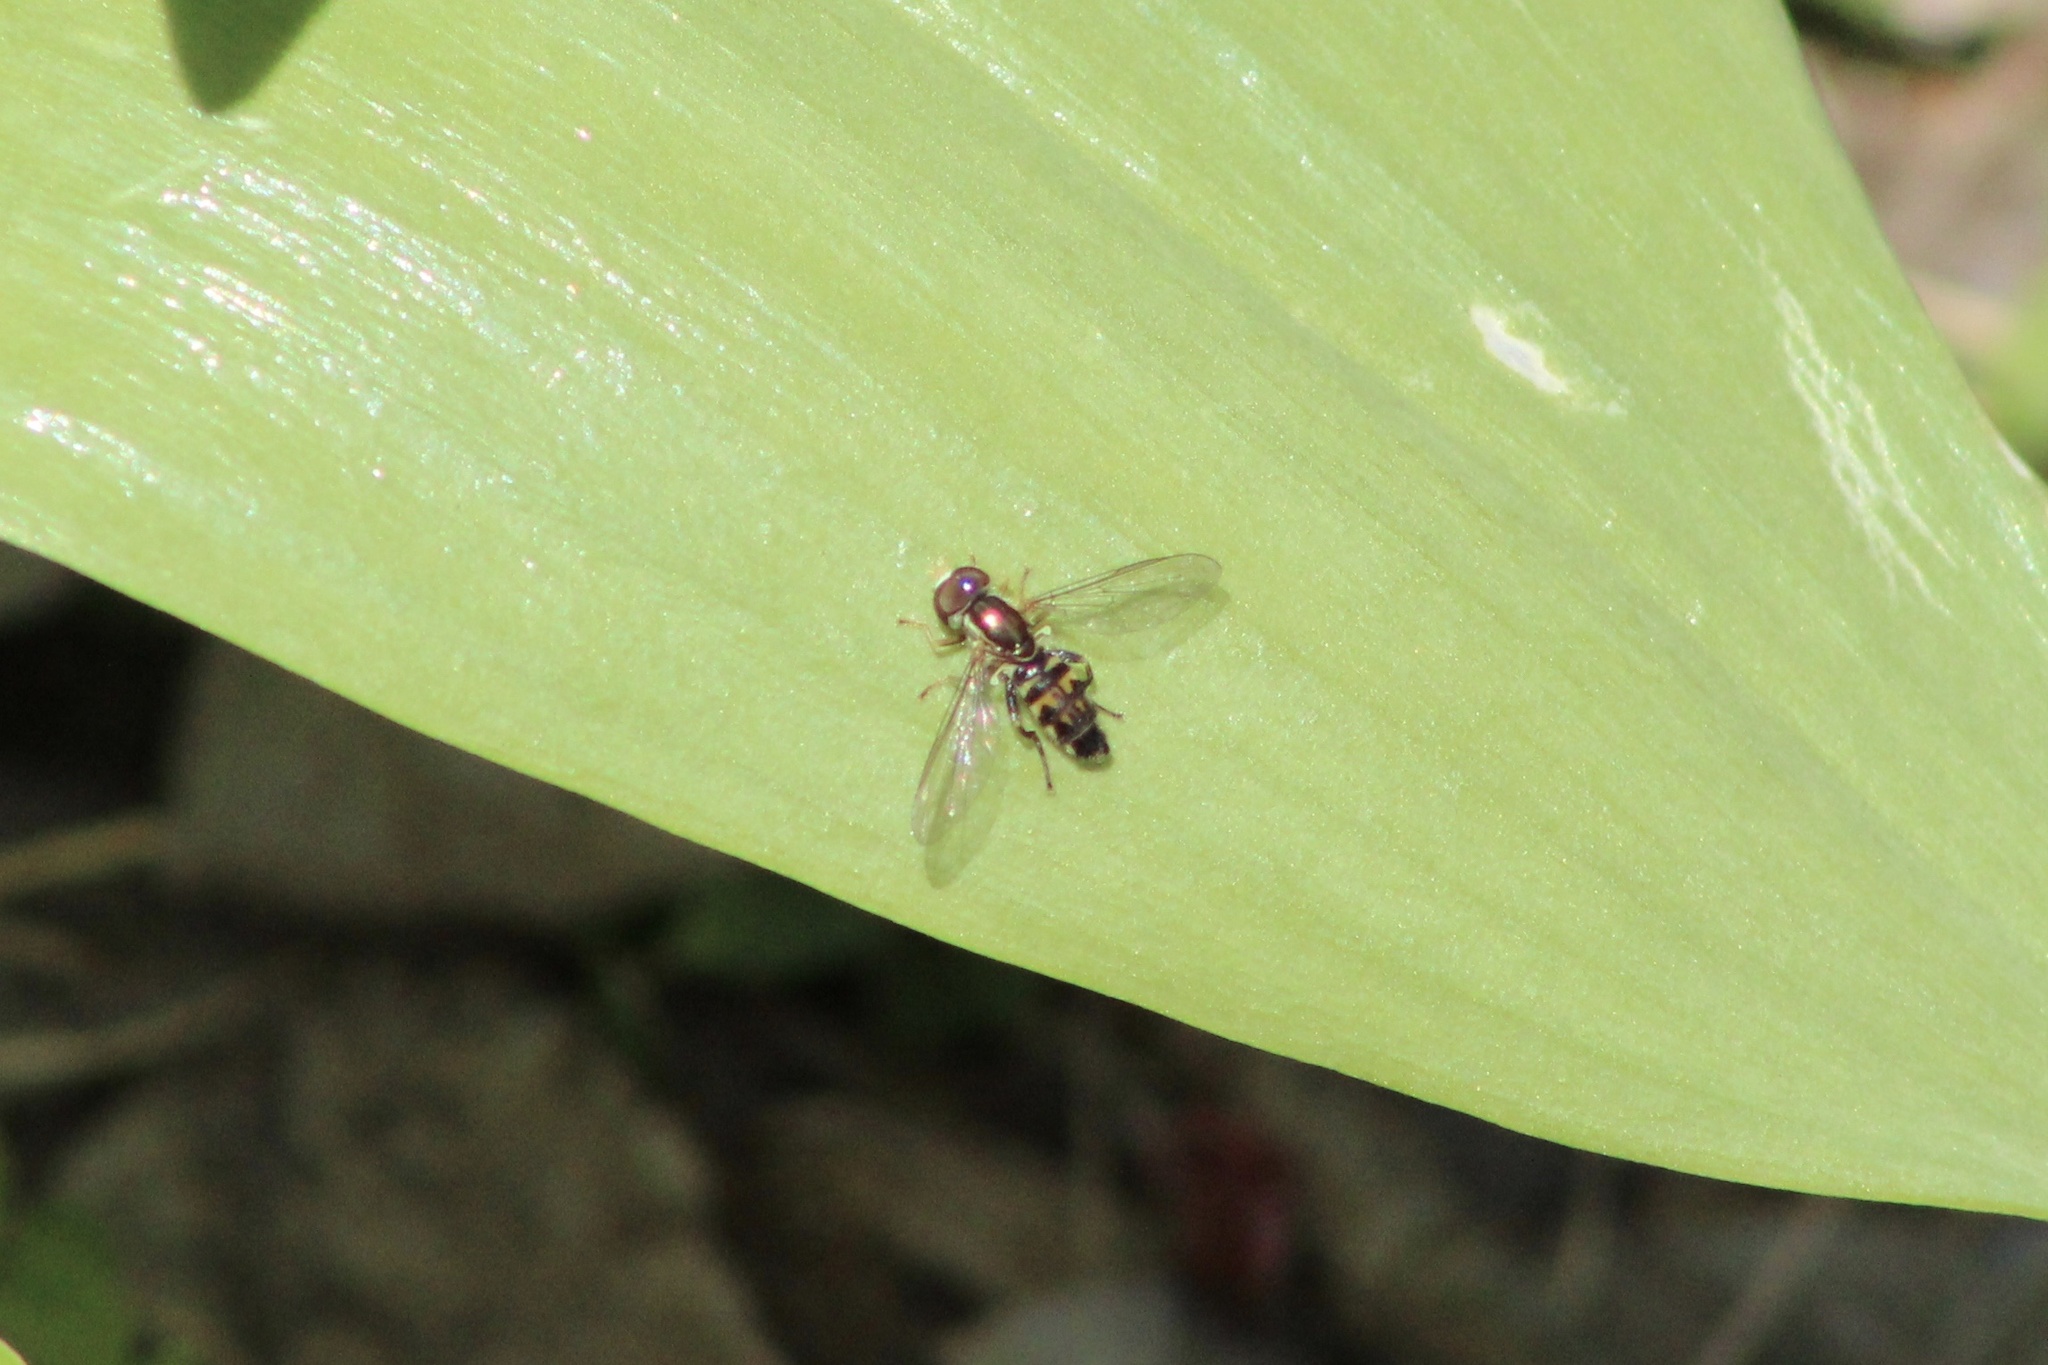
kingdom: Animalia
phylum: Arthropoda
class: Insecta
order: Diptera
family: Syrphidae
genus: Toxomerus
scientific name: Toxomerus geminatus
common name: Eastern calligrapher
